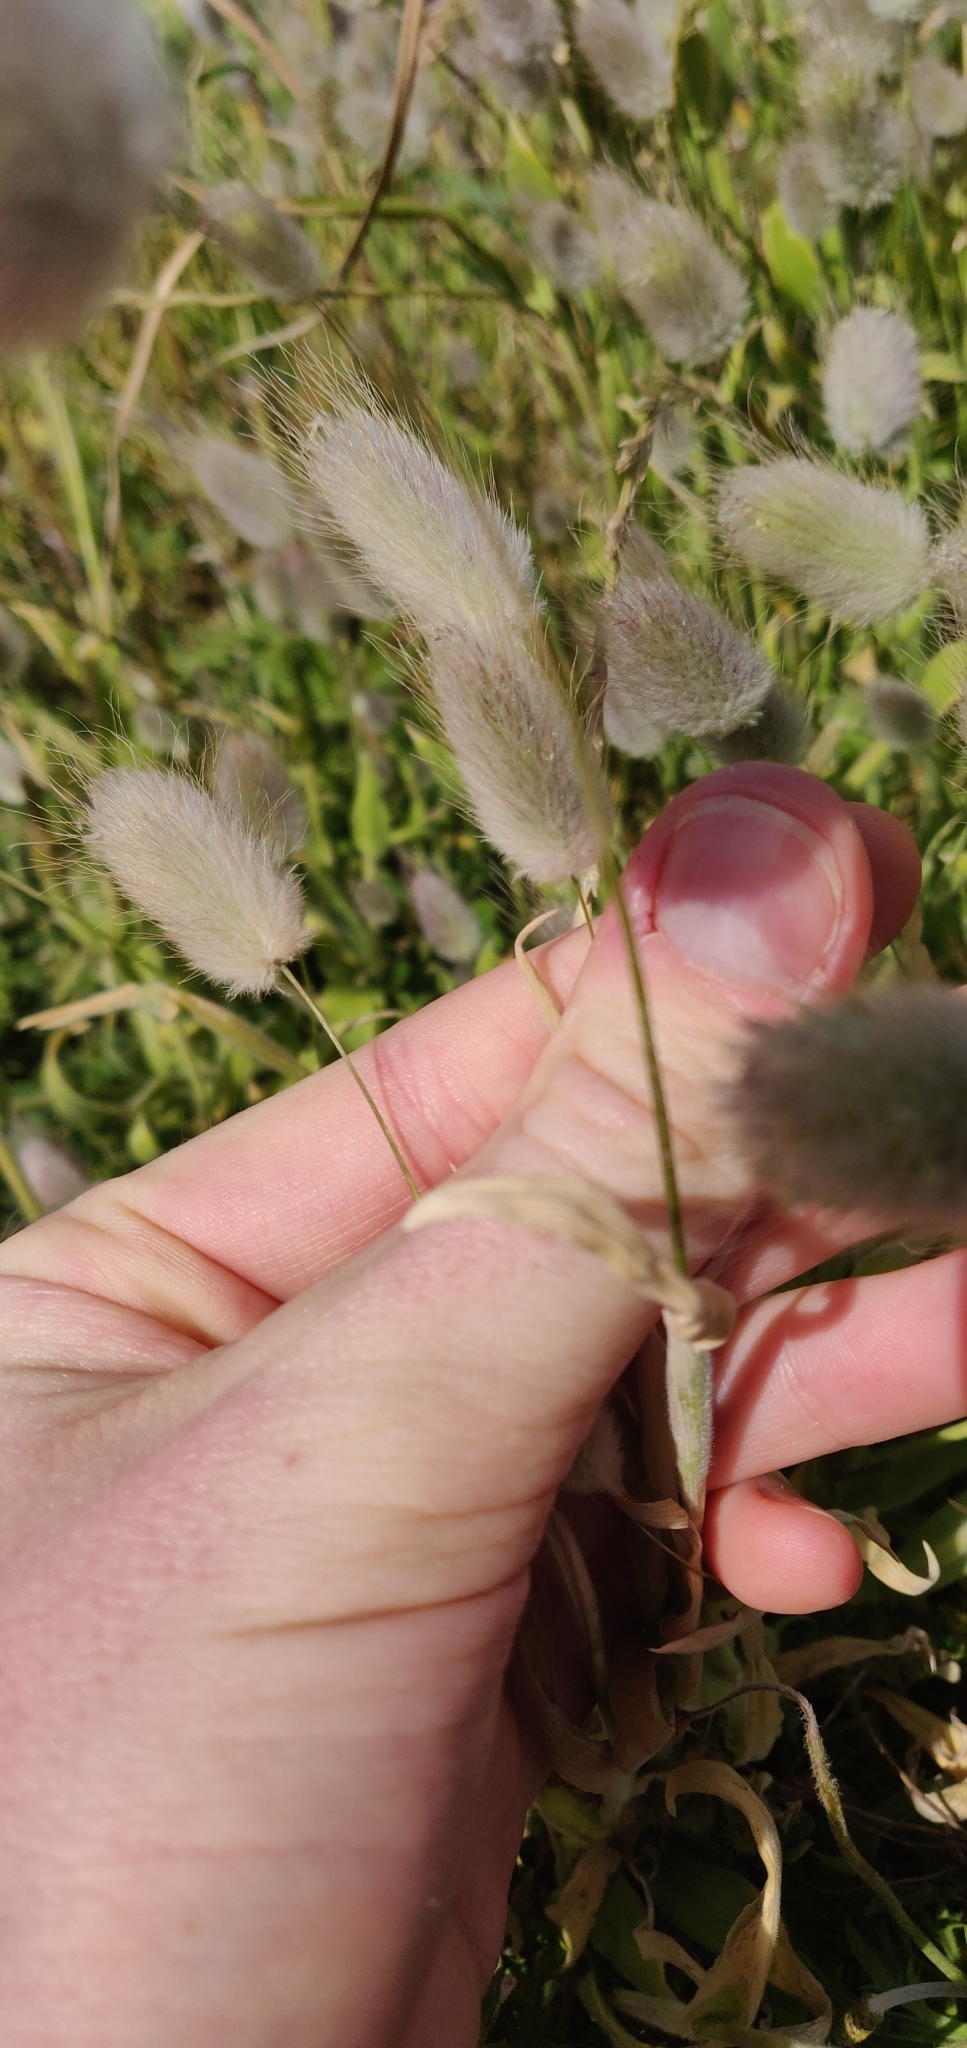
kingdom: Plantae
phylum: Tracheophyta
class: Liliopsida
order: Poales
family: Poaceae
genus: Lagurus
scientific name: Lagurus ovatus
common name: Hare's-tail
